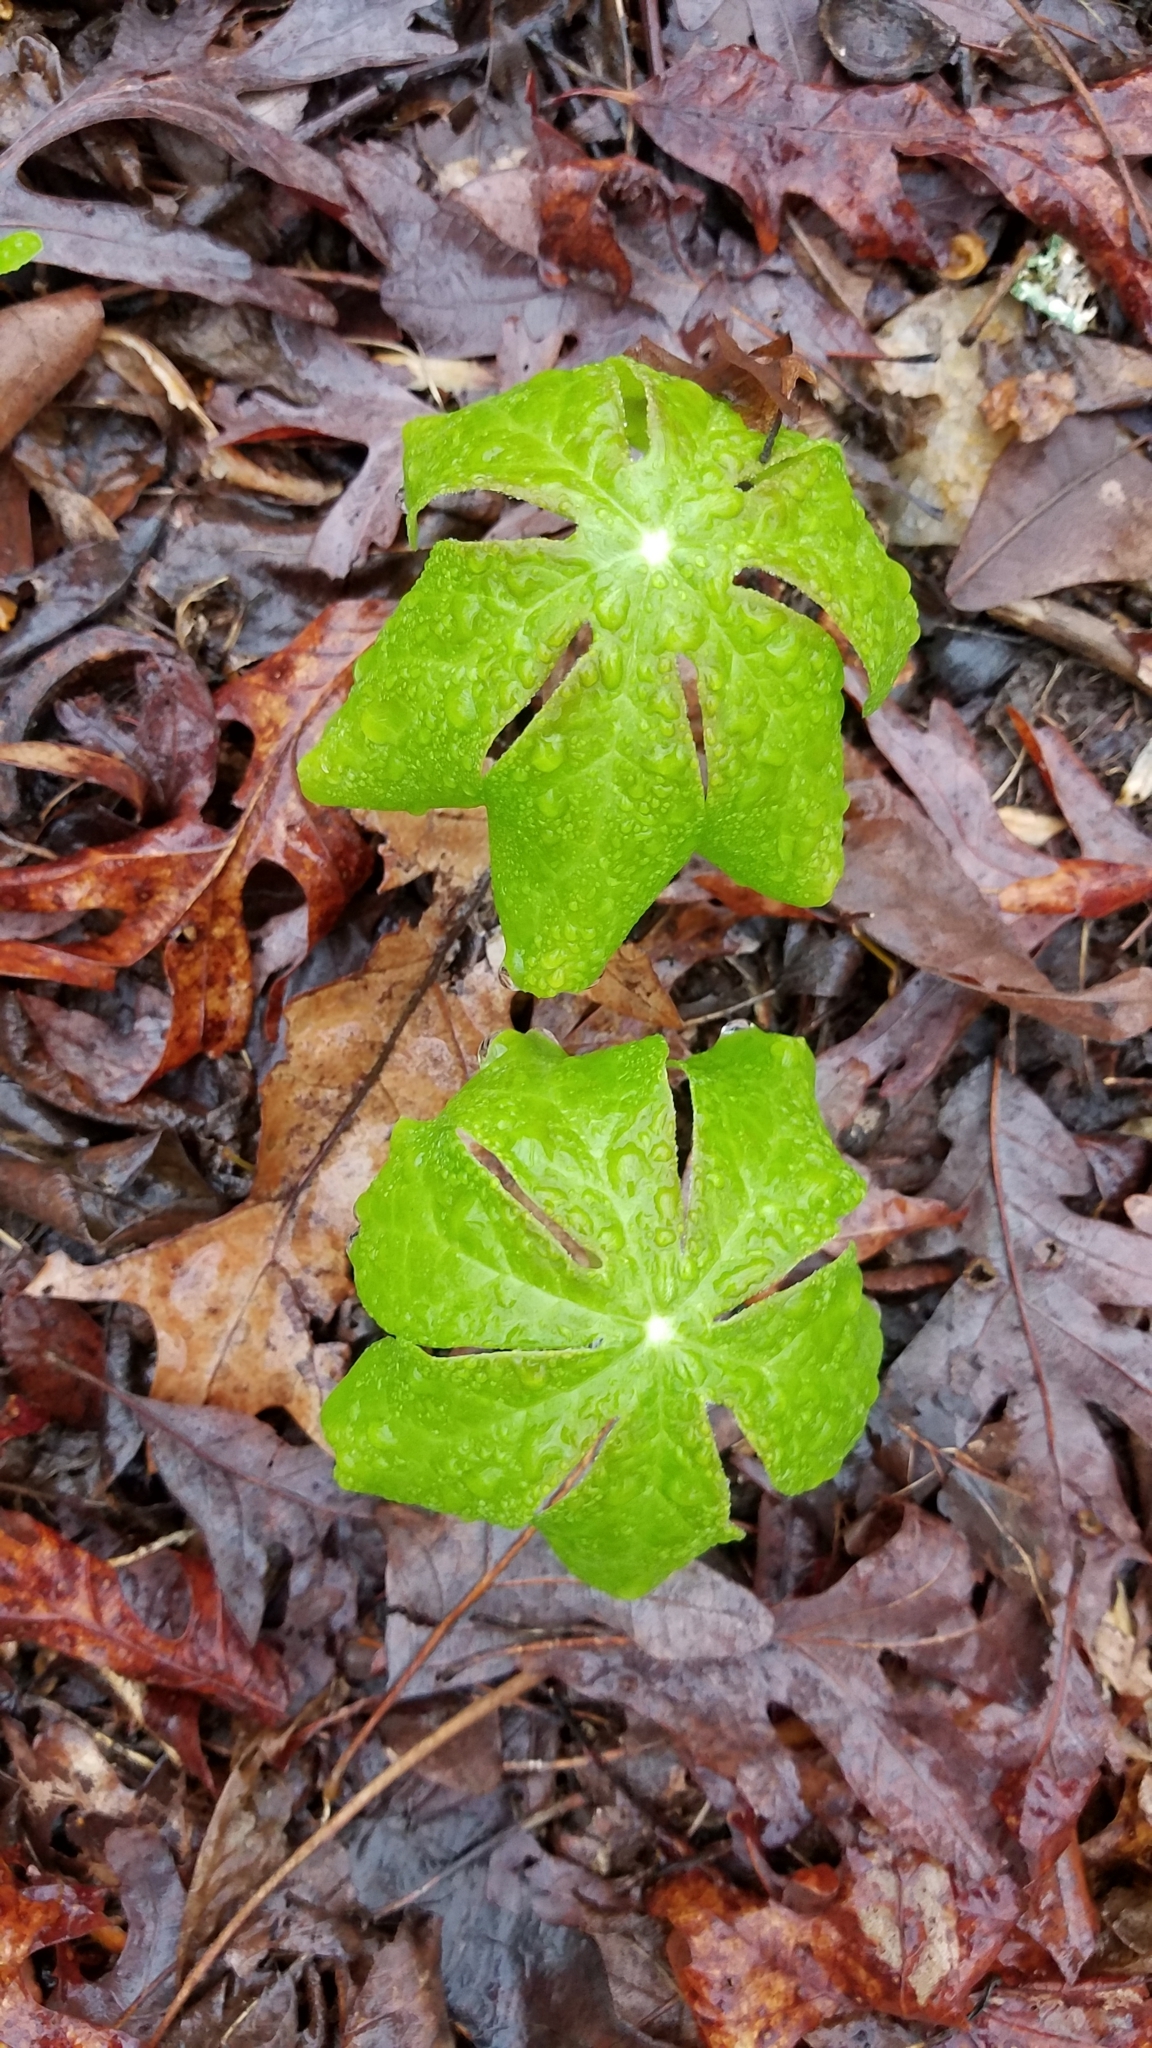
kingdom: Plantae
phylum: Tracheophyta
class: Magnoliopsida
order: Ranunculales
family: Berberidaceae
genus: Podophyllum
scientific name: Podophyllum peltatum
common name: Wild mandrake
